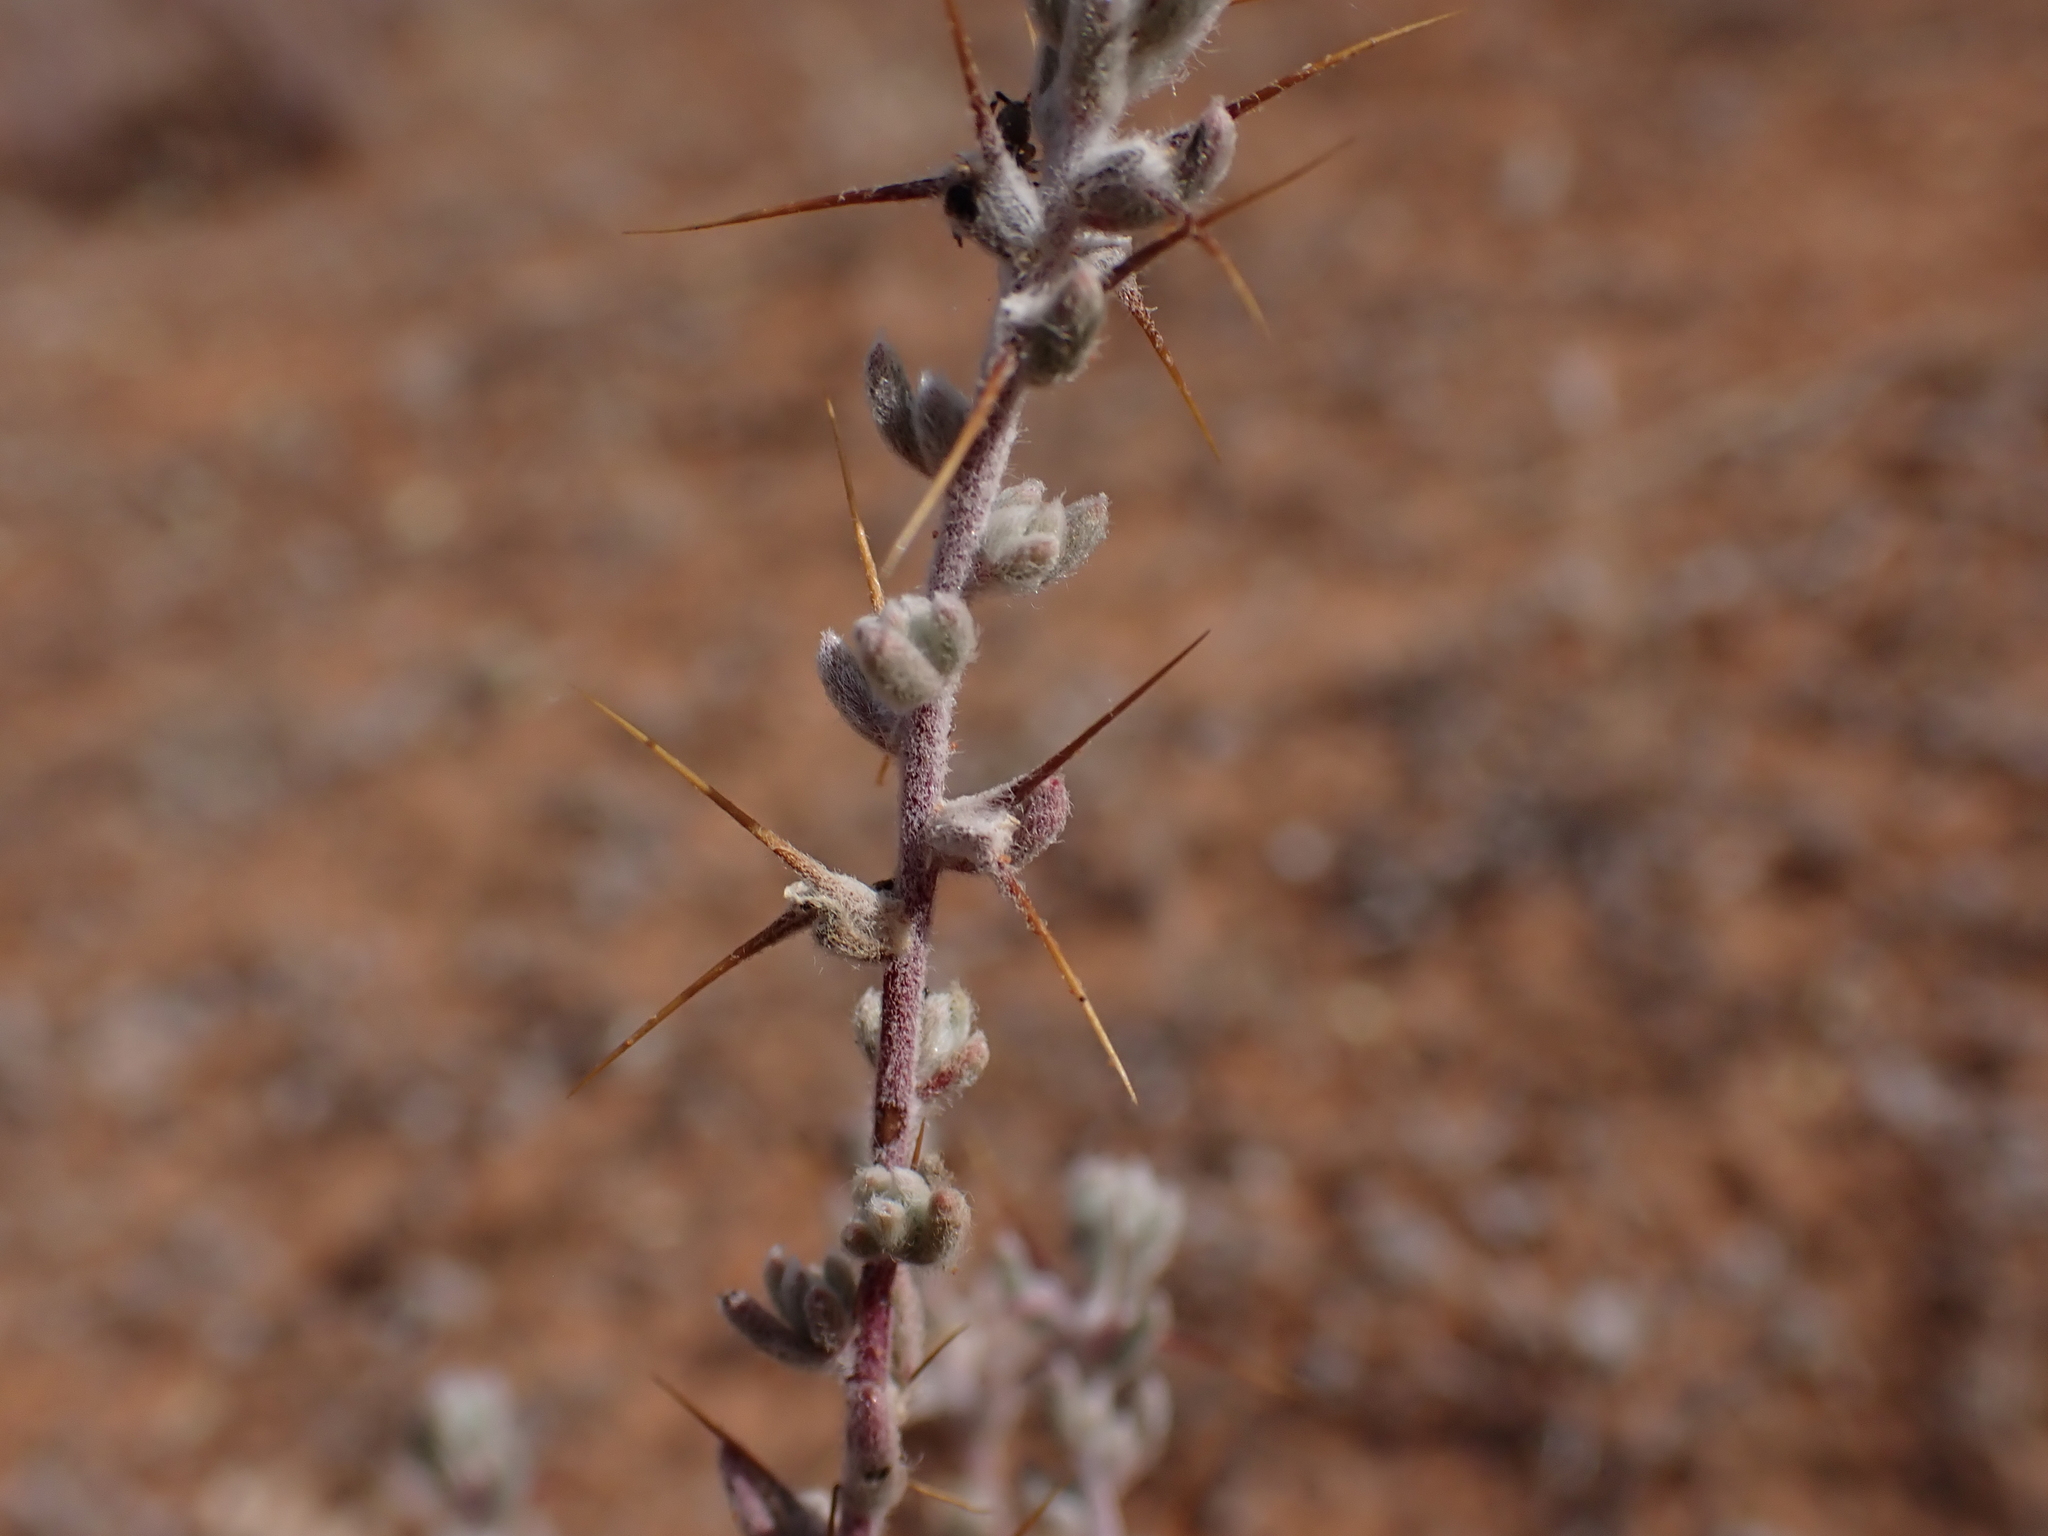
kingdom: Plantae
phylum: Tracheophyta
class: Magnoliopsida
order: Caryophyllales
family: Amaranthaceae
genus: Sclerolaena
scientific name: Sclerolaena obliquicuspis
